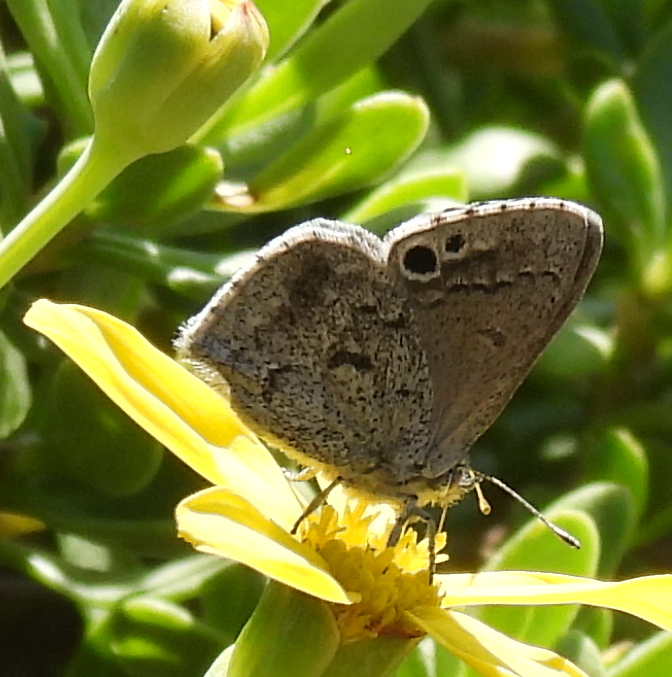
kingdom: Animalia
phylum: Arthropoda
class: Insecta
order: Lepidoptera
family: Lycaenidae
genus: Leptomyrina
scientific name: Leptomyrina lara
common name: Cape black-eye
